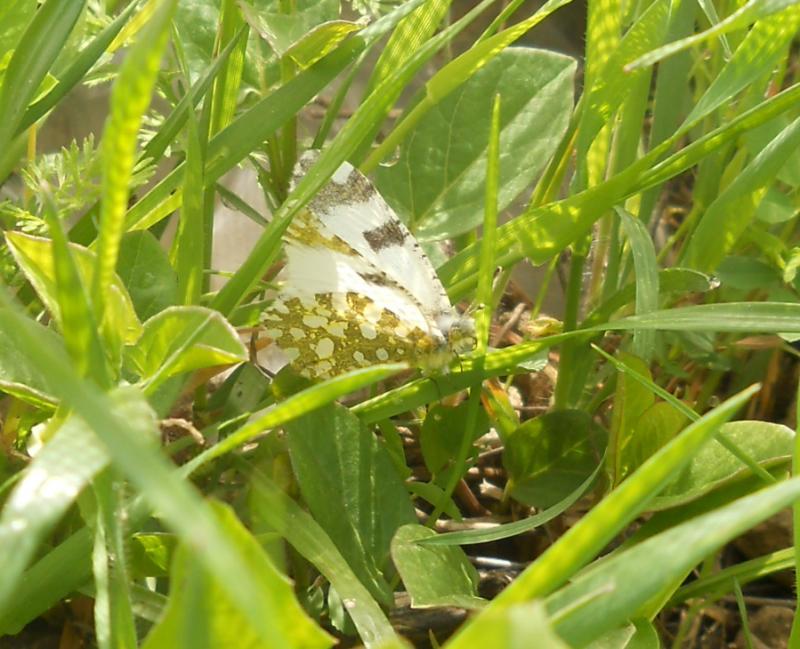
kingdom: Animalia
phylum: Arthropoda
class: Insecta
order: Lepidoptera
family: Pieridae
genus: Euchloe
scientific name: Euchloe ausonia
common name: Eastern dappled white
